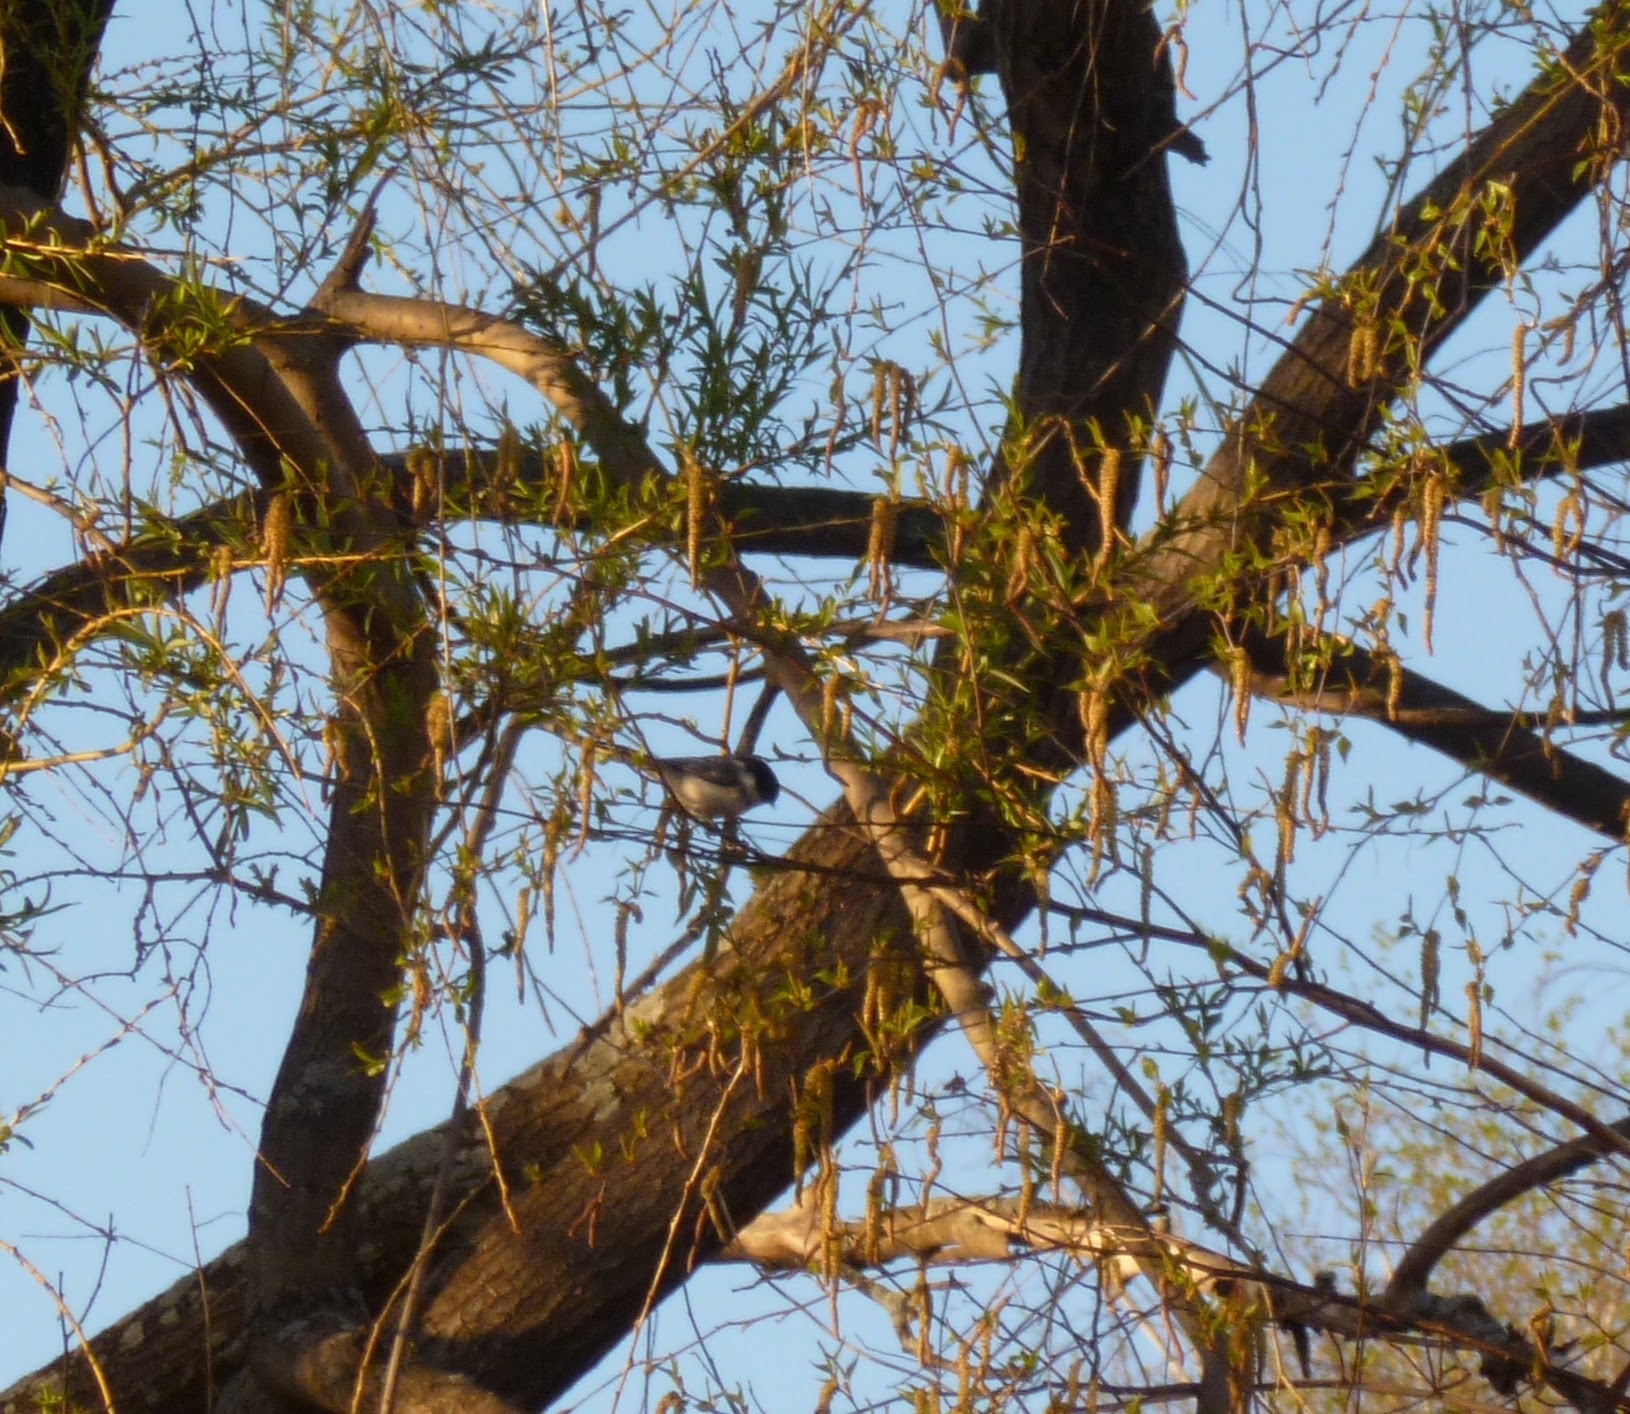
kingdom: Animalia
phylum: Chordata
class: Aves
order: Passeriformes
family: Paridae
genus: Poecile
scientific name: Poecile atricapillus
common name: Black-capped chickadee
